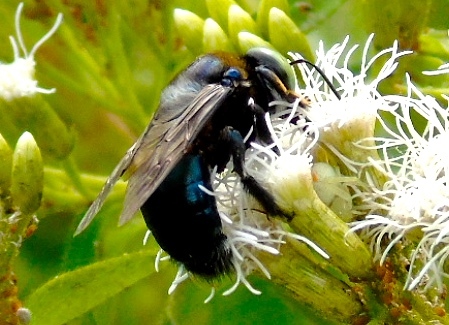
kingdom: Animalia
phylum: Arthropoda
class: Insecta
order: Hymenoptera
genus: Schonnherria
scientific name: Schonnherria
